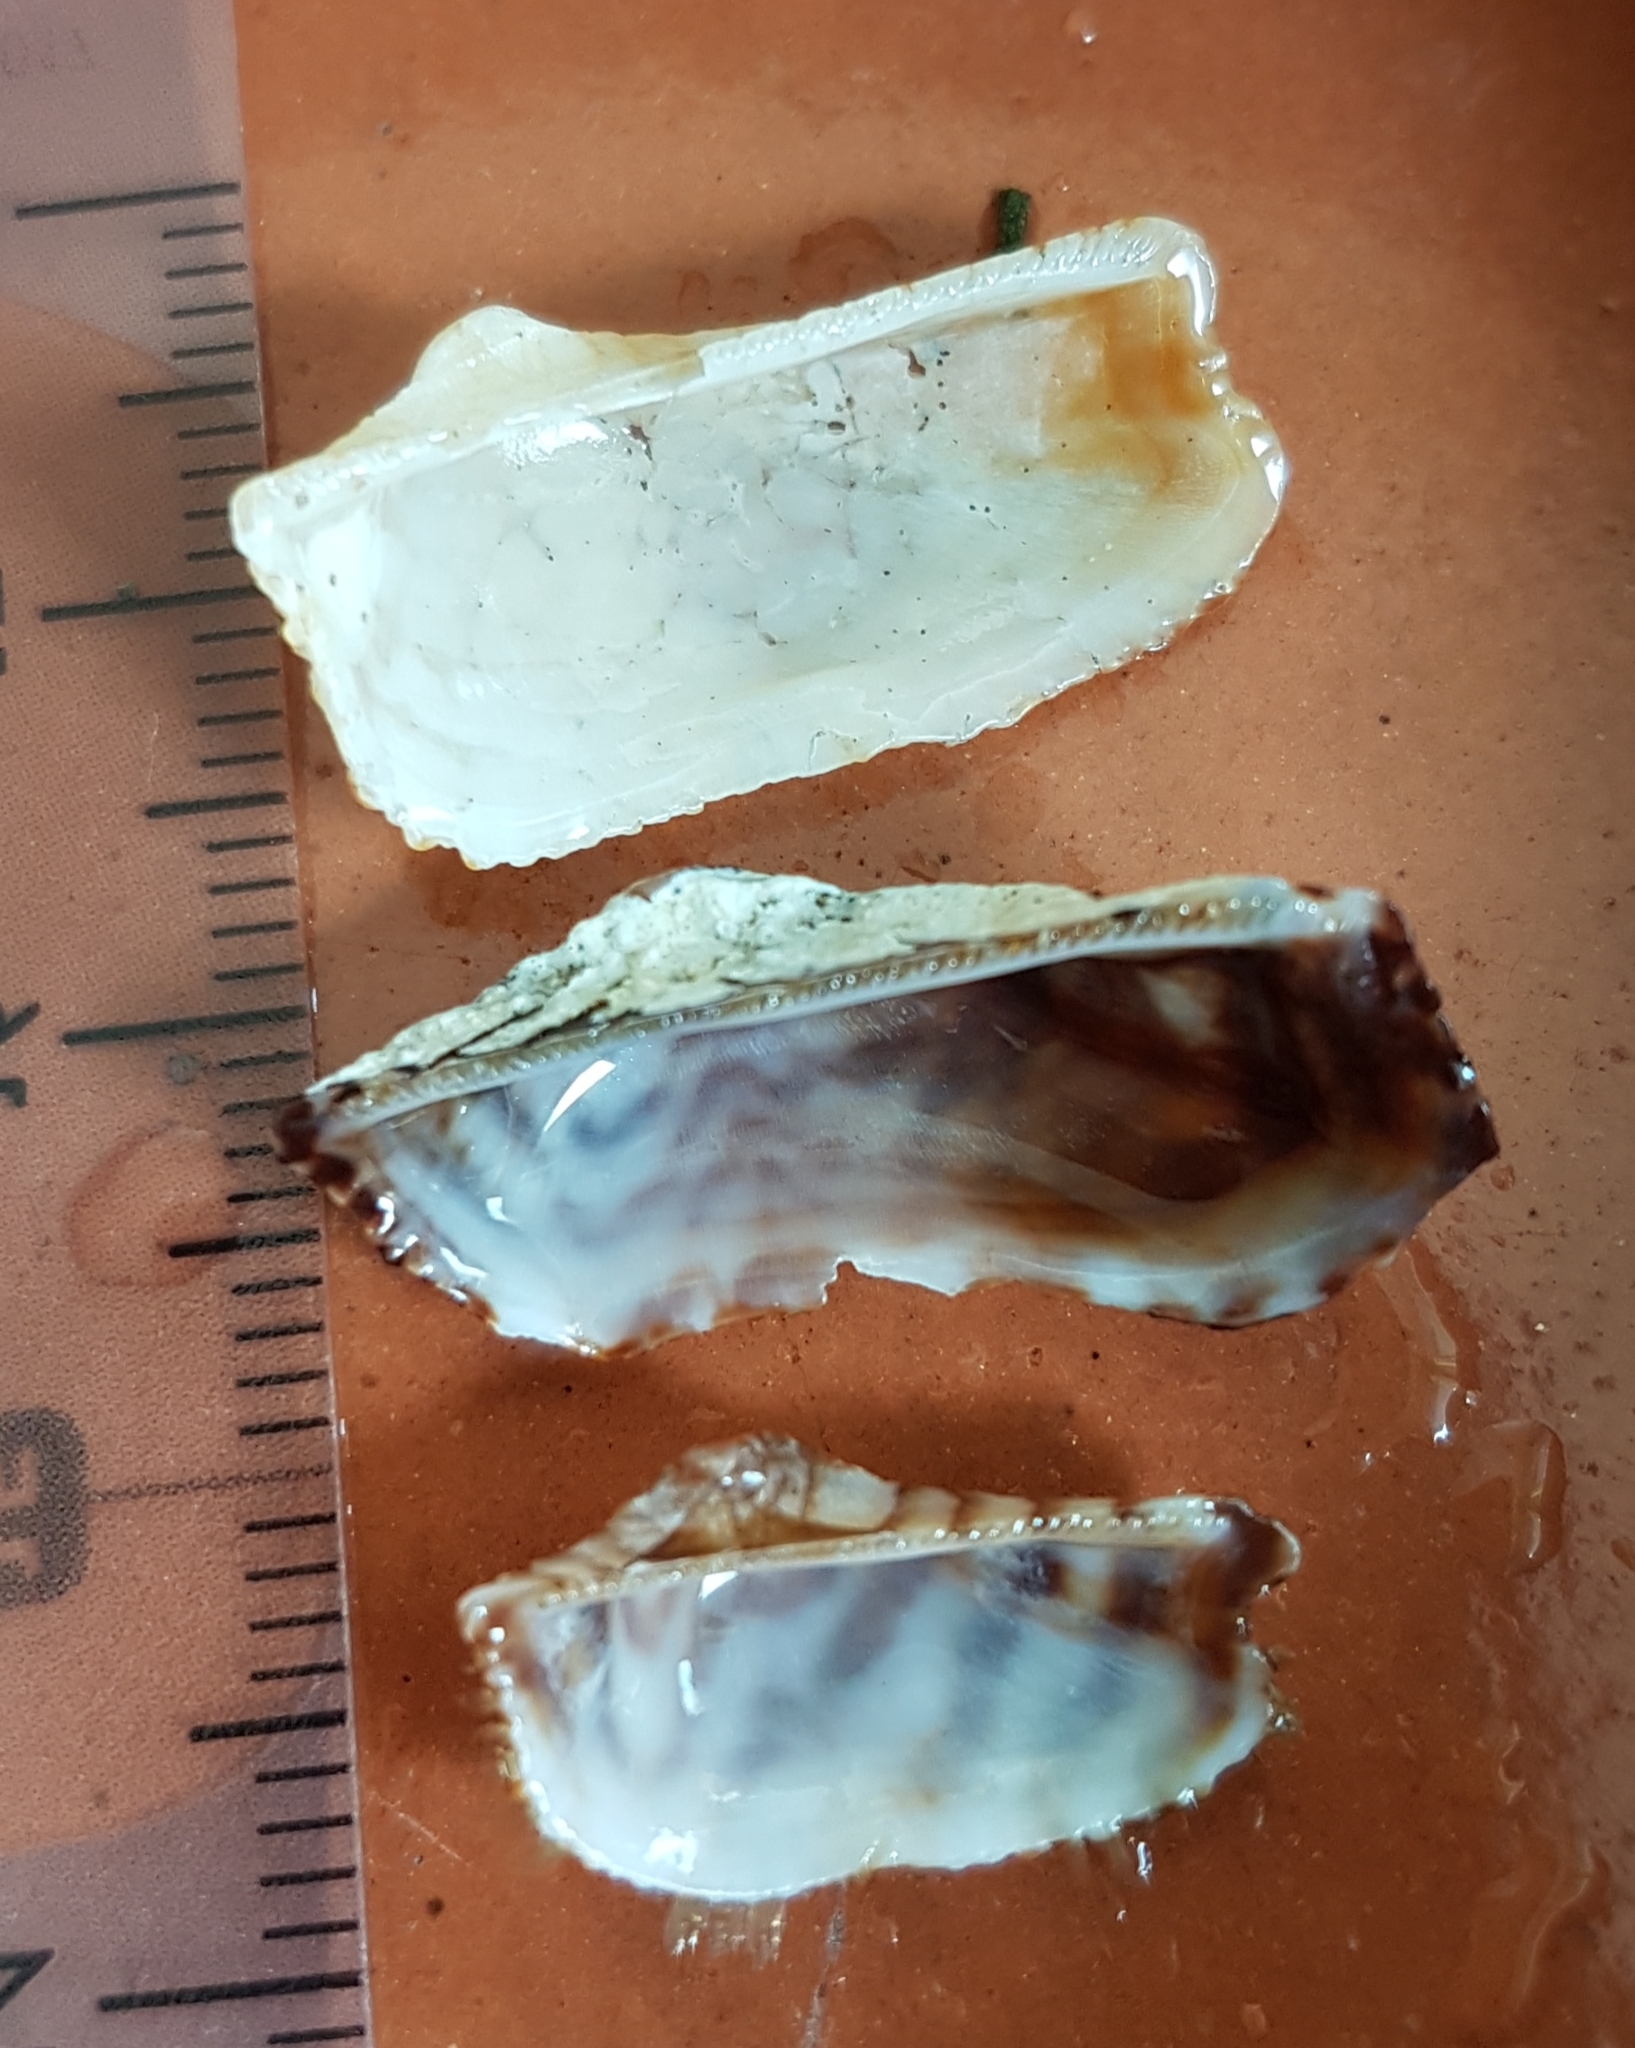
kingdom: Animalia
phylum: Mollusca
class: Bivalvia
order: Arcida
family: Arcidae
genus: Arca
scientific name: Arca noae
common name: Noah's arch
